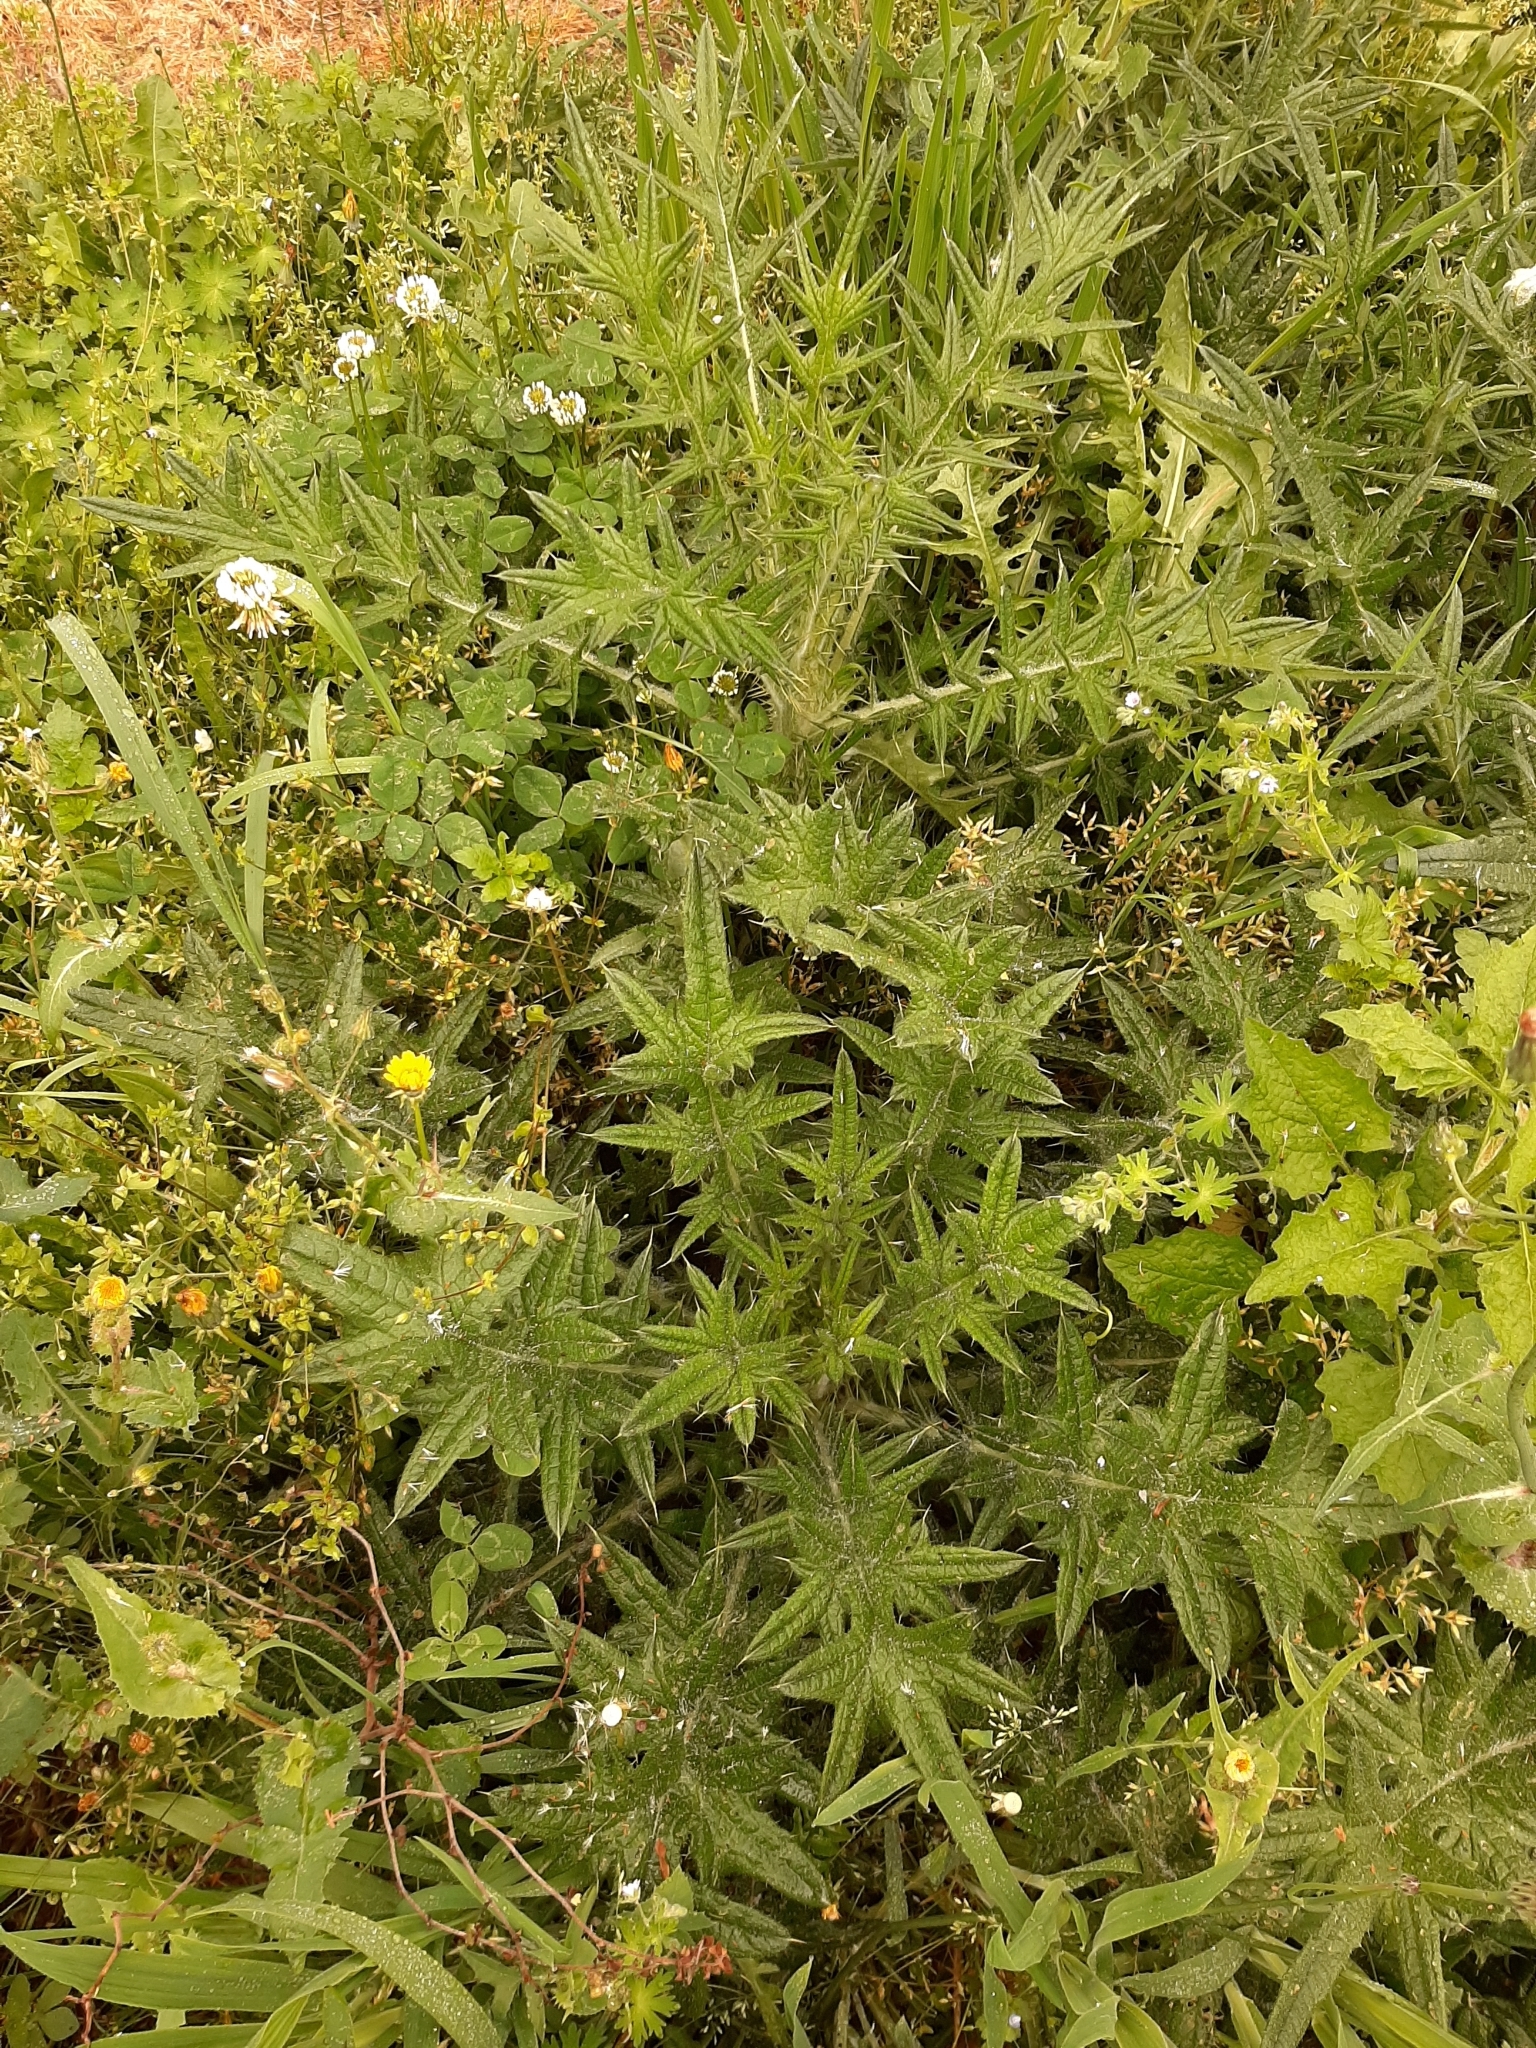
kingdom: Plantae
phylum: Tracheophyta
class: Magnoliopsida
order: Asterales
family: Asteraceae
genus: Cirsium
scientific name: Cirsium vulgare
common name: Bull thistle
